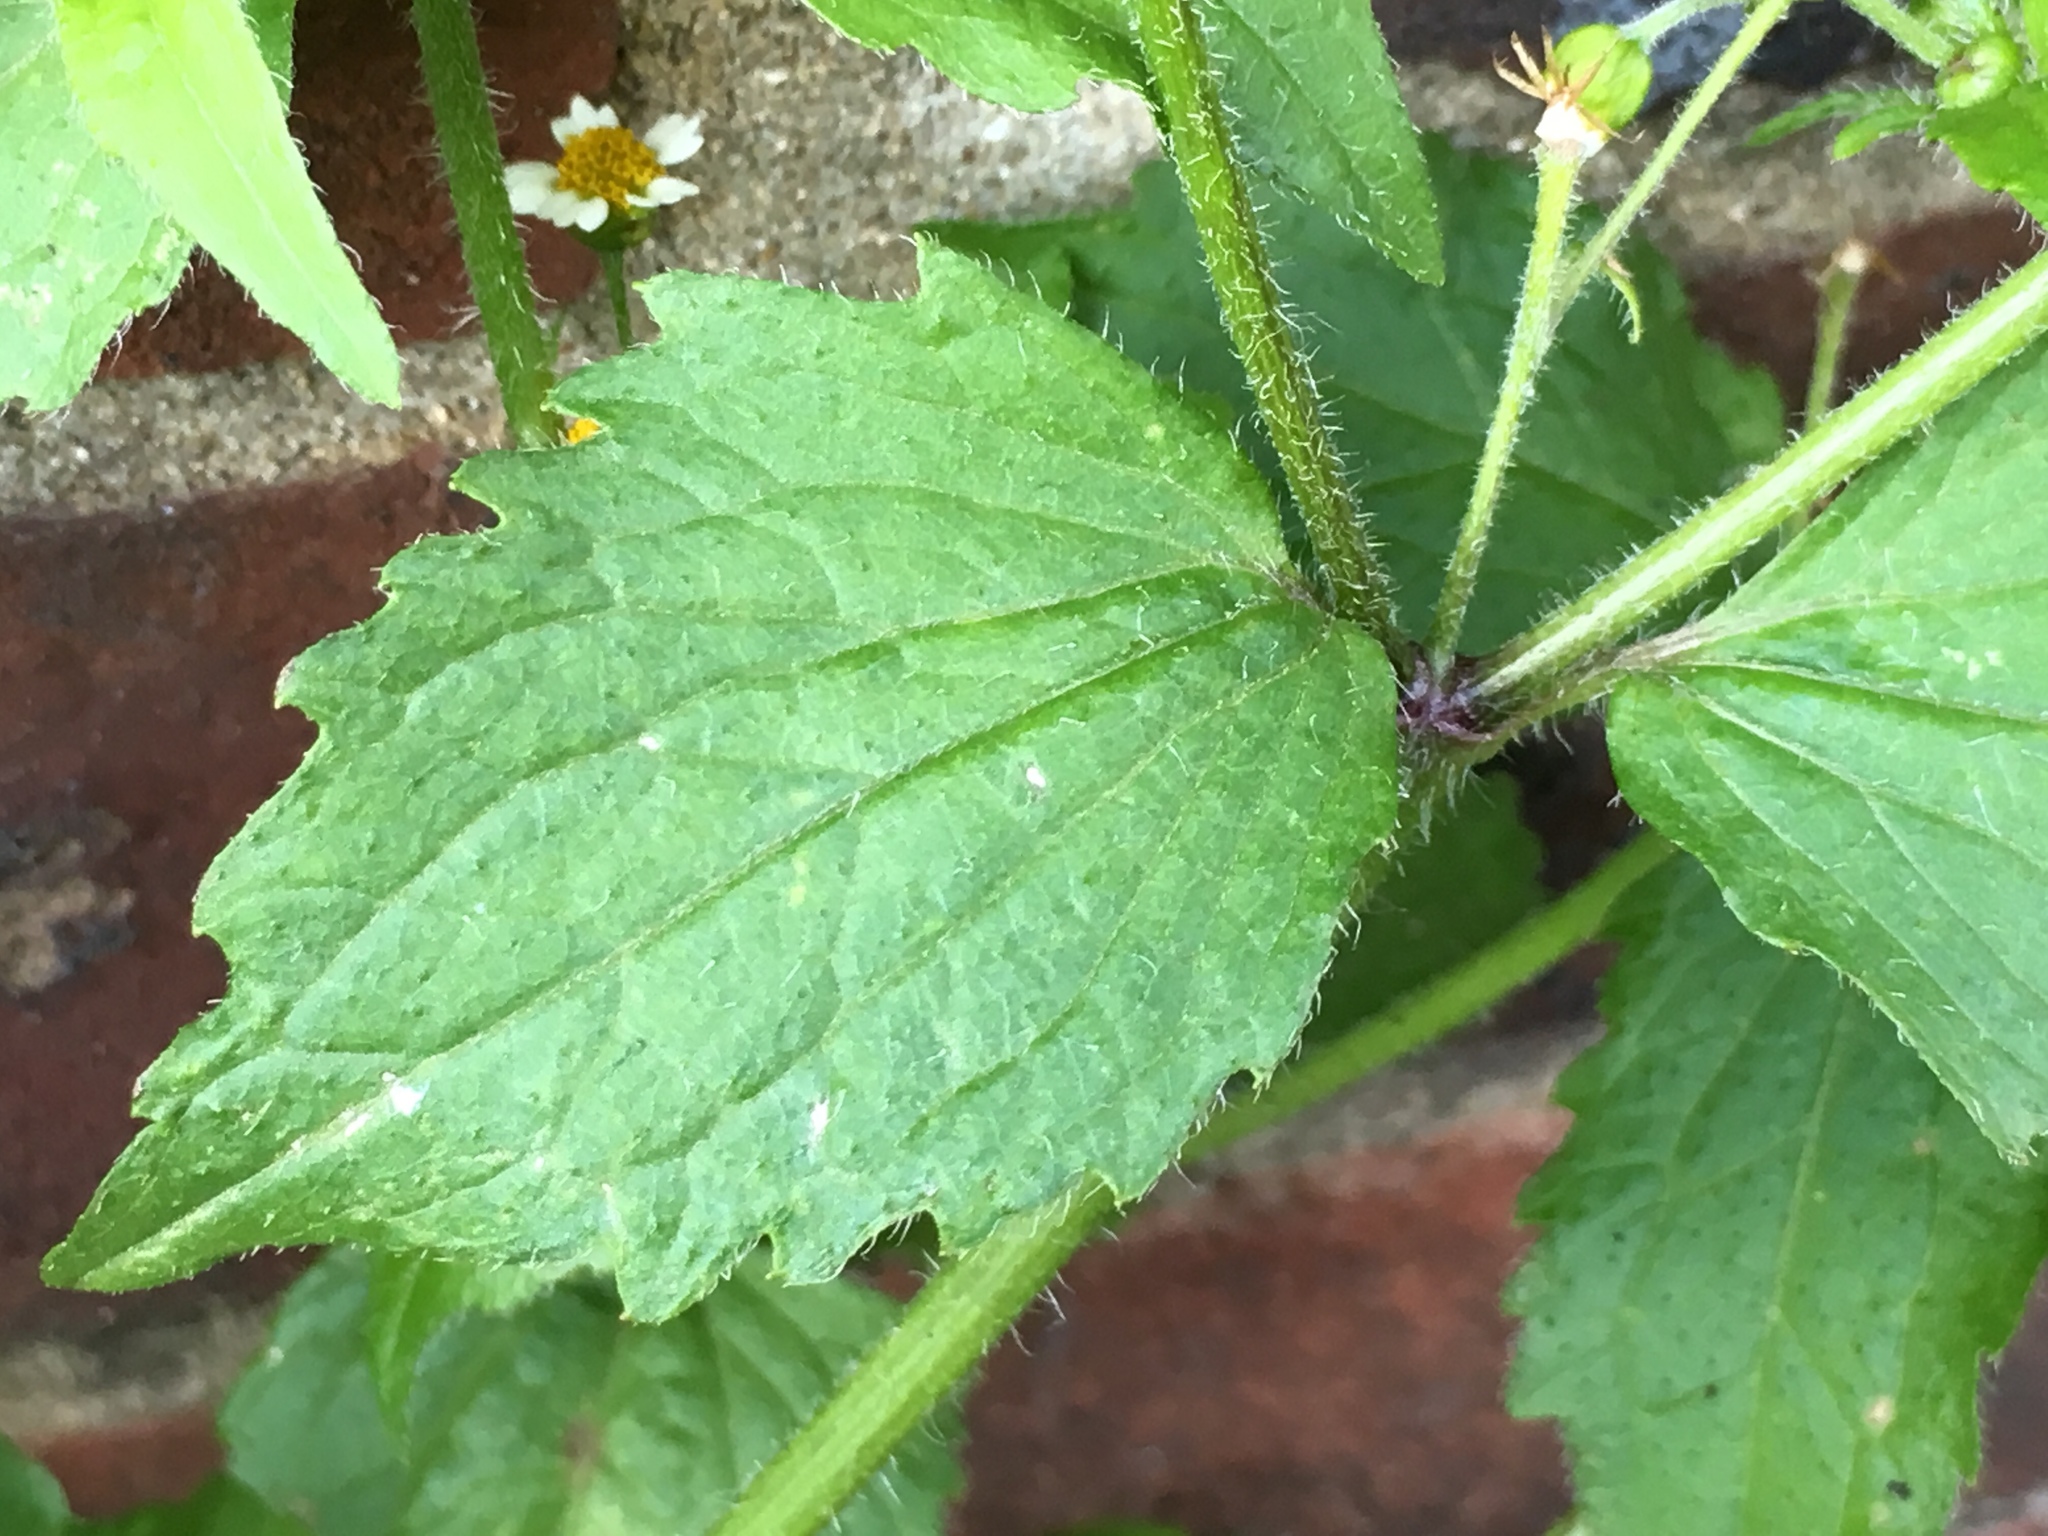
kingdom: Plantae
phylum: Tracheophyta
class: Magnoliopsida
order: Asterales
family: Asteraceae
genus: Galinsoga
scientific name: Galinsoga quadriradiata
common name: Shaggy soldier
